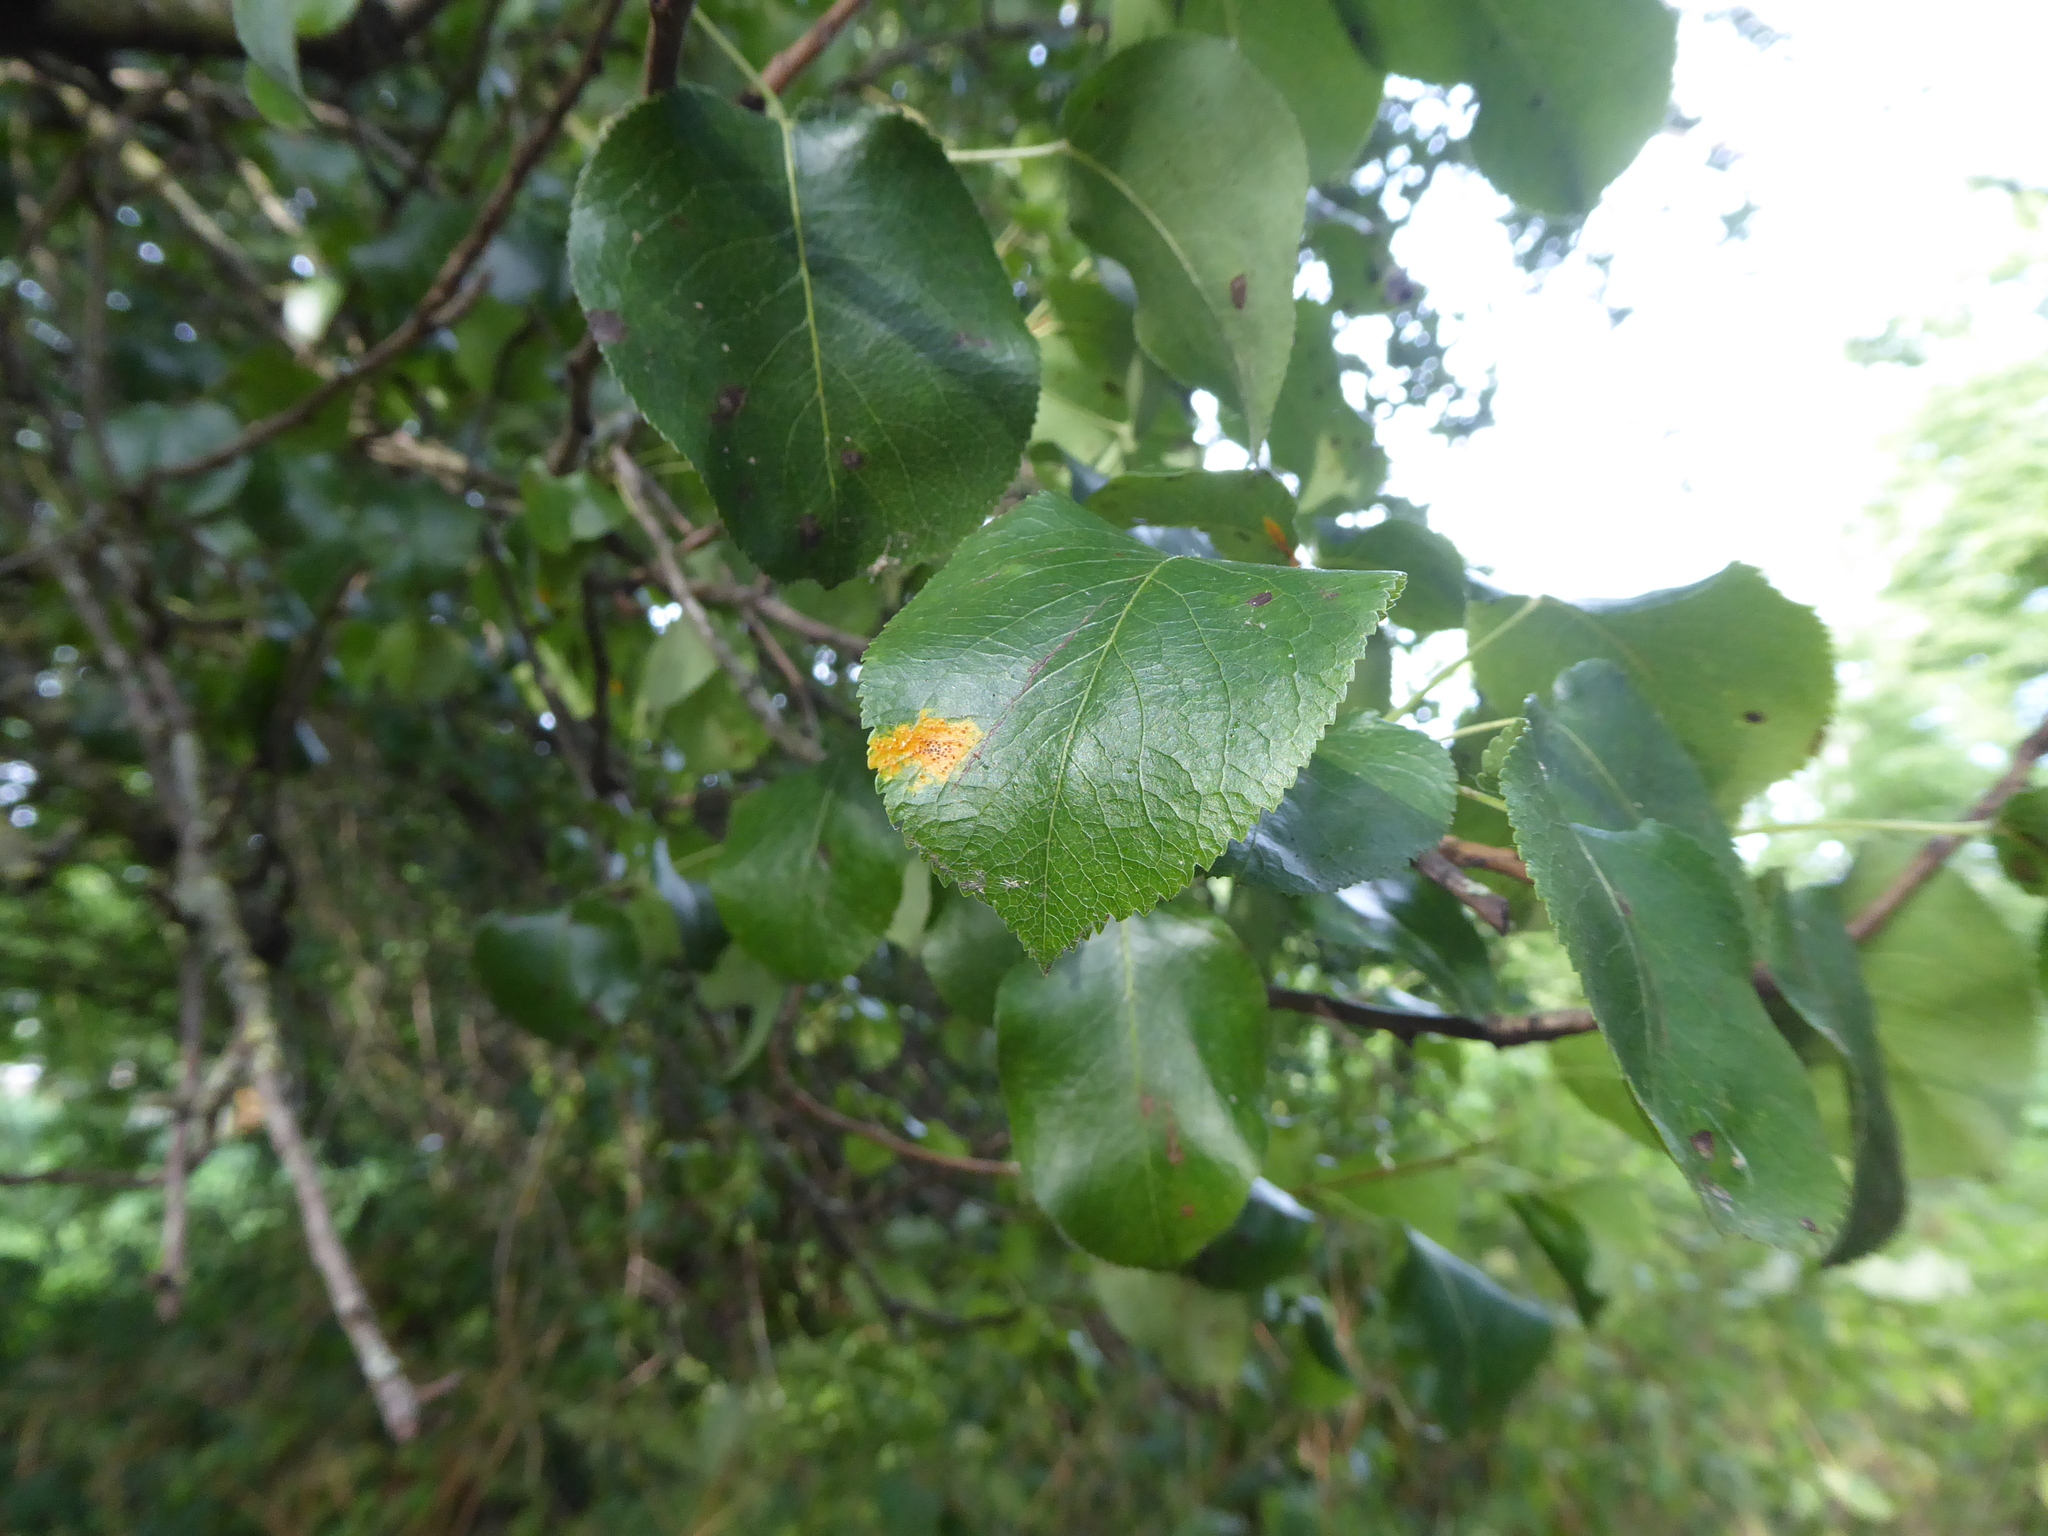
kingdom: Fungi
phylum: Basidiomycota
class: Pucciniomycetes
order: Pucciniales
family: Gymnosporangiaceae
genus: Gymnosporangium
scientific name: Gymnosporangium sabinae
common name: Pear trellis rust fungus
